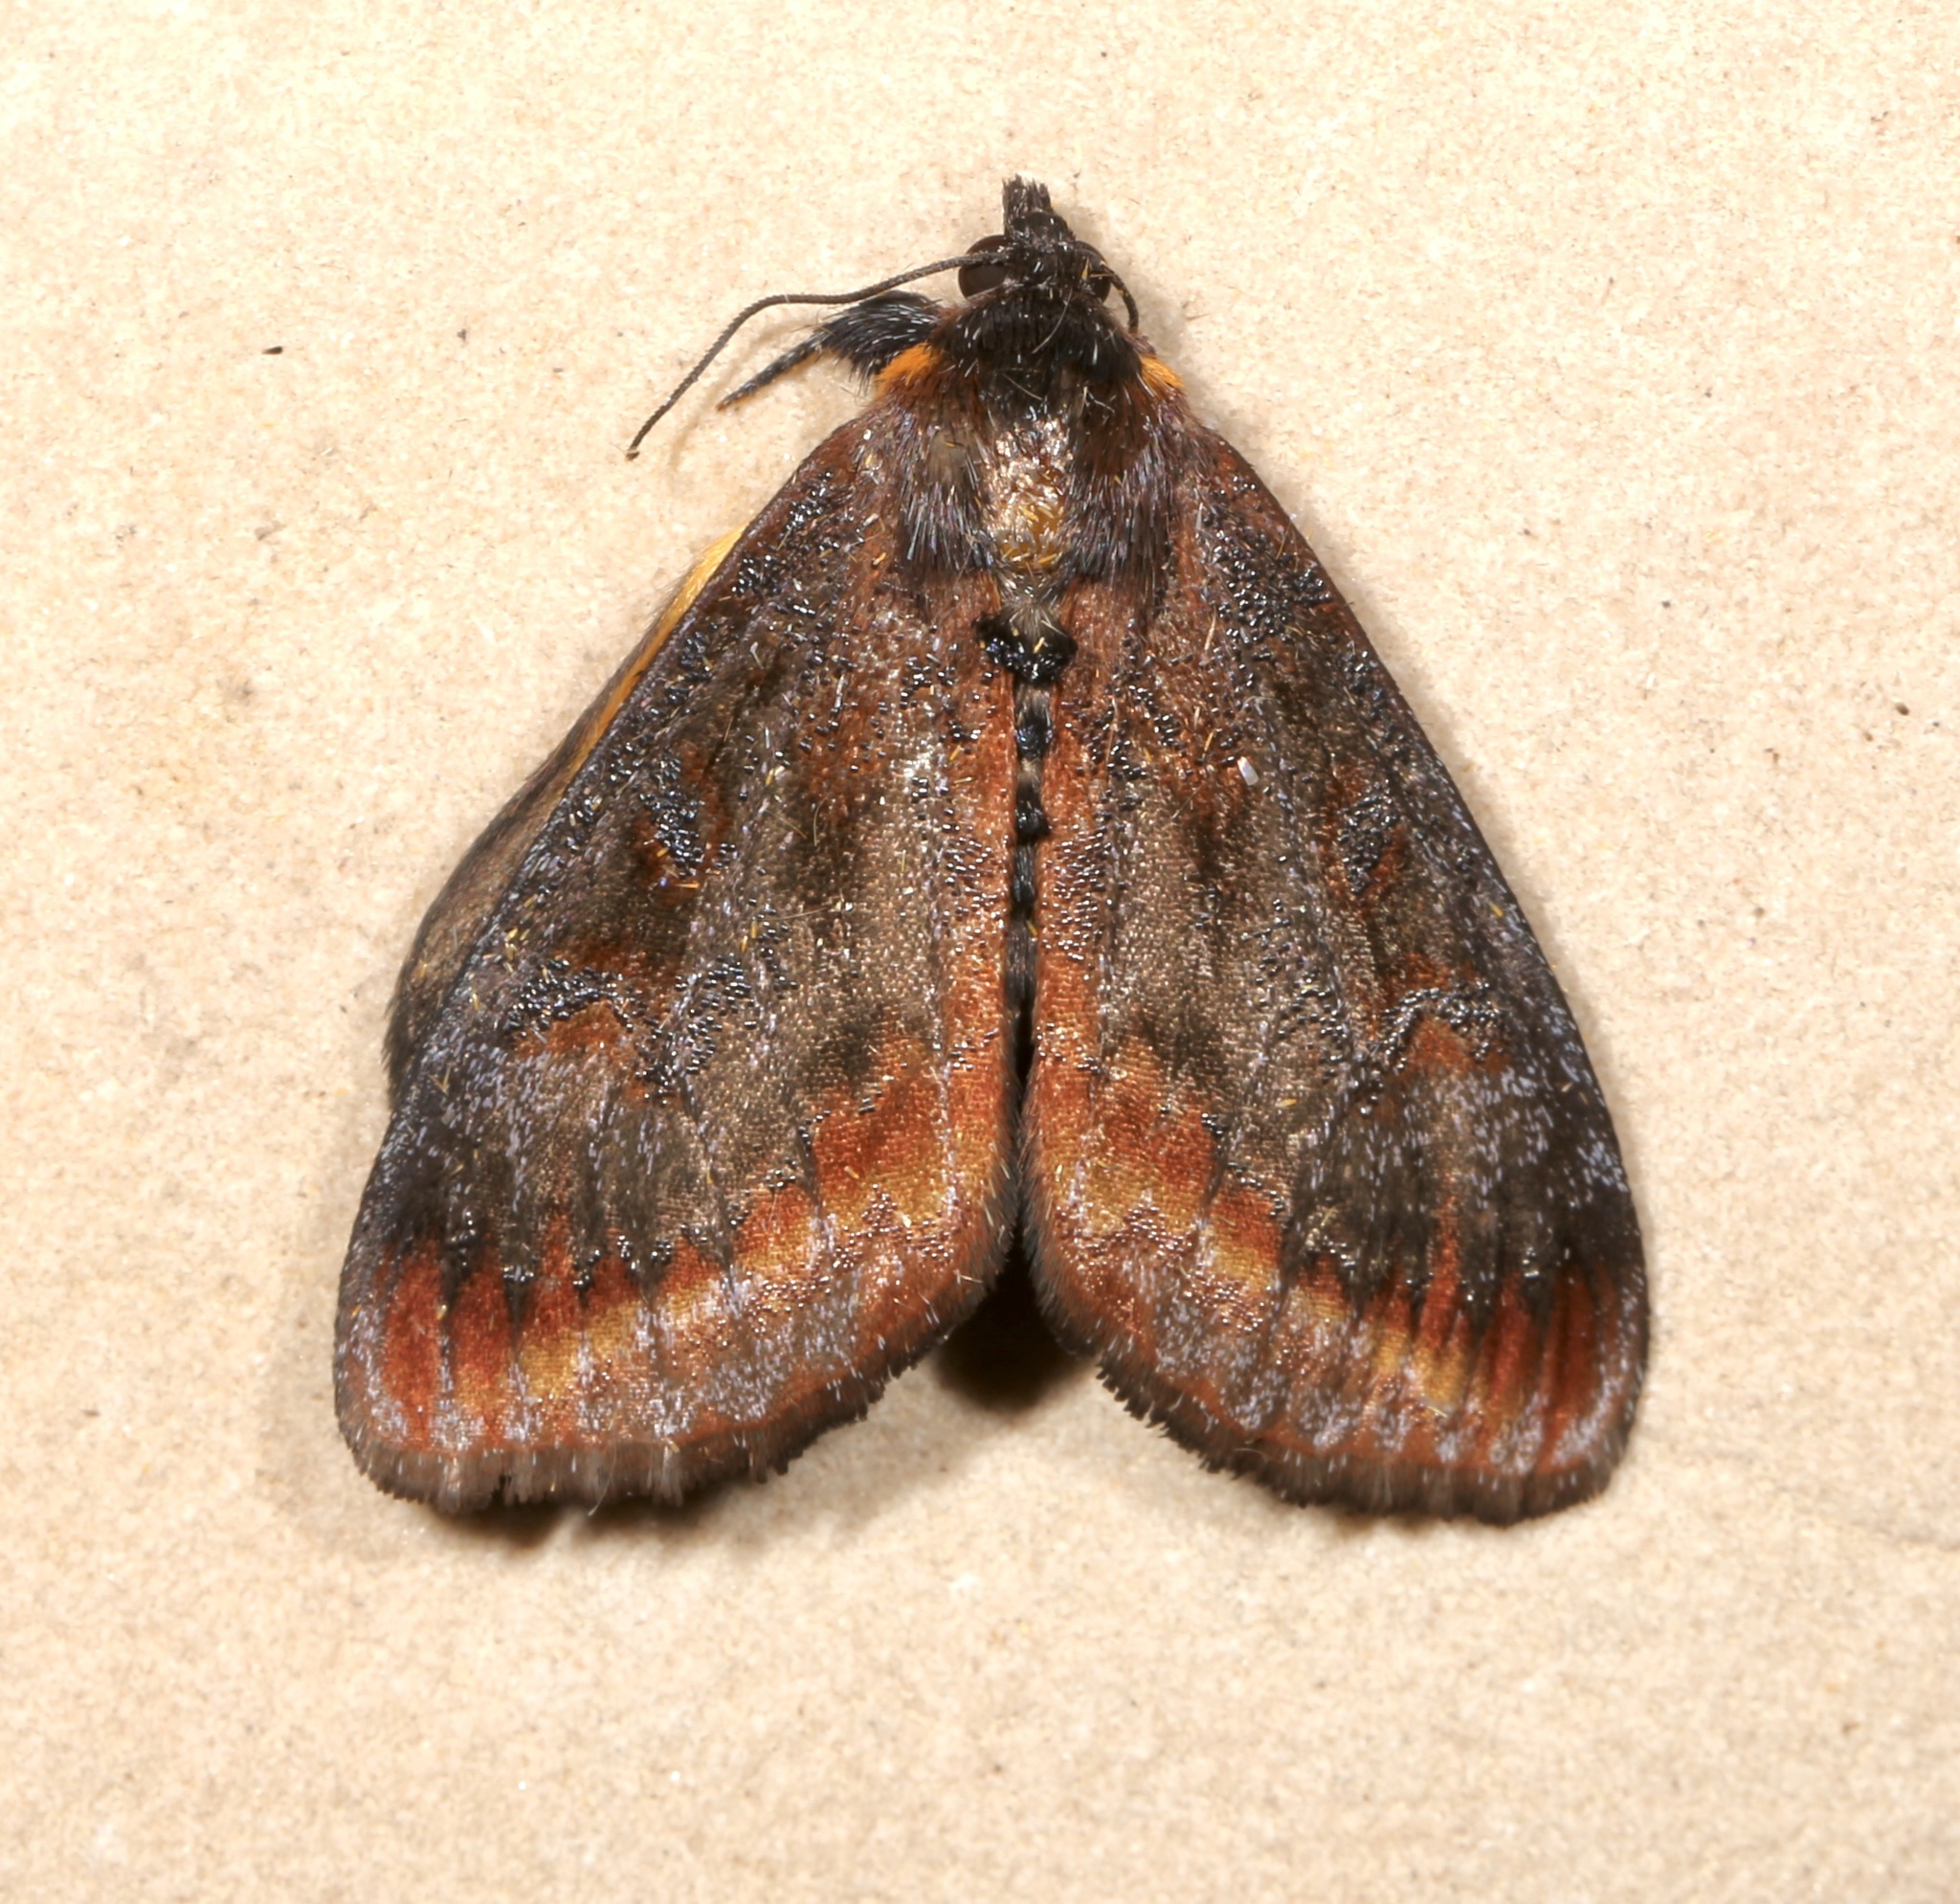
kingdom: Animalia
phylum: Arthropoda
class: Insecta
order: Lepidoptera
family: Noctuidae
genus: Gerra
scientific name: Gerra radicalis
